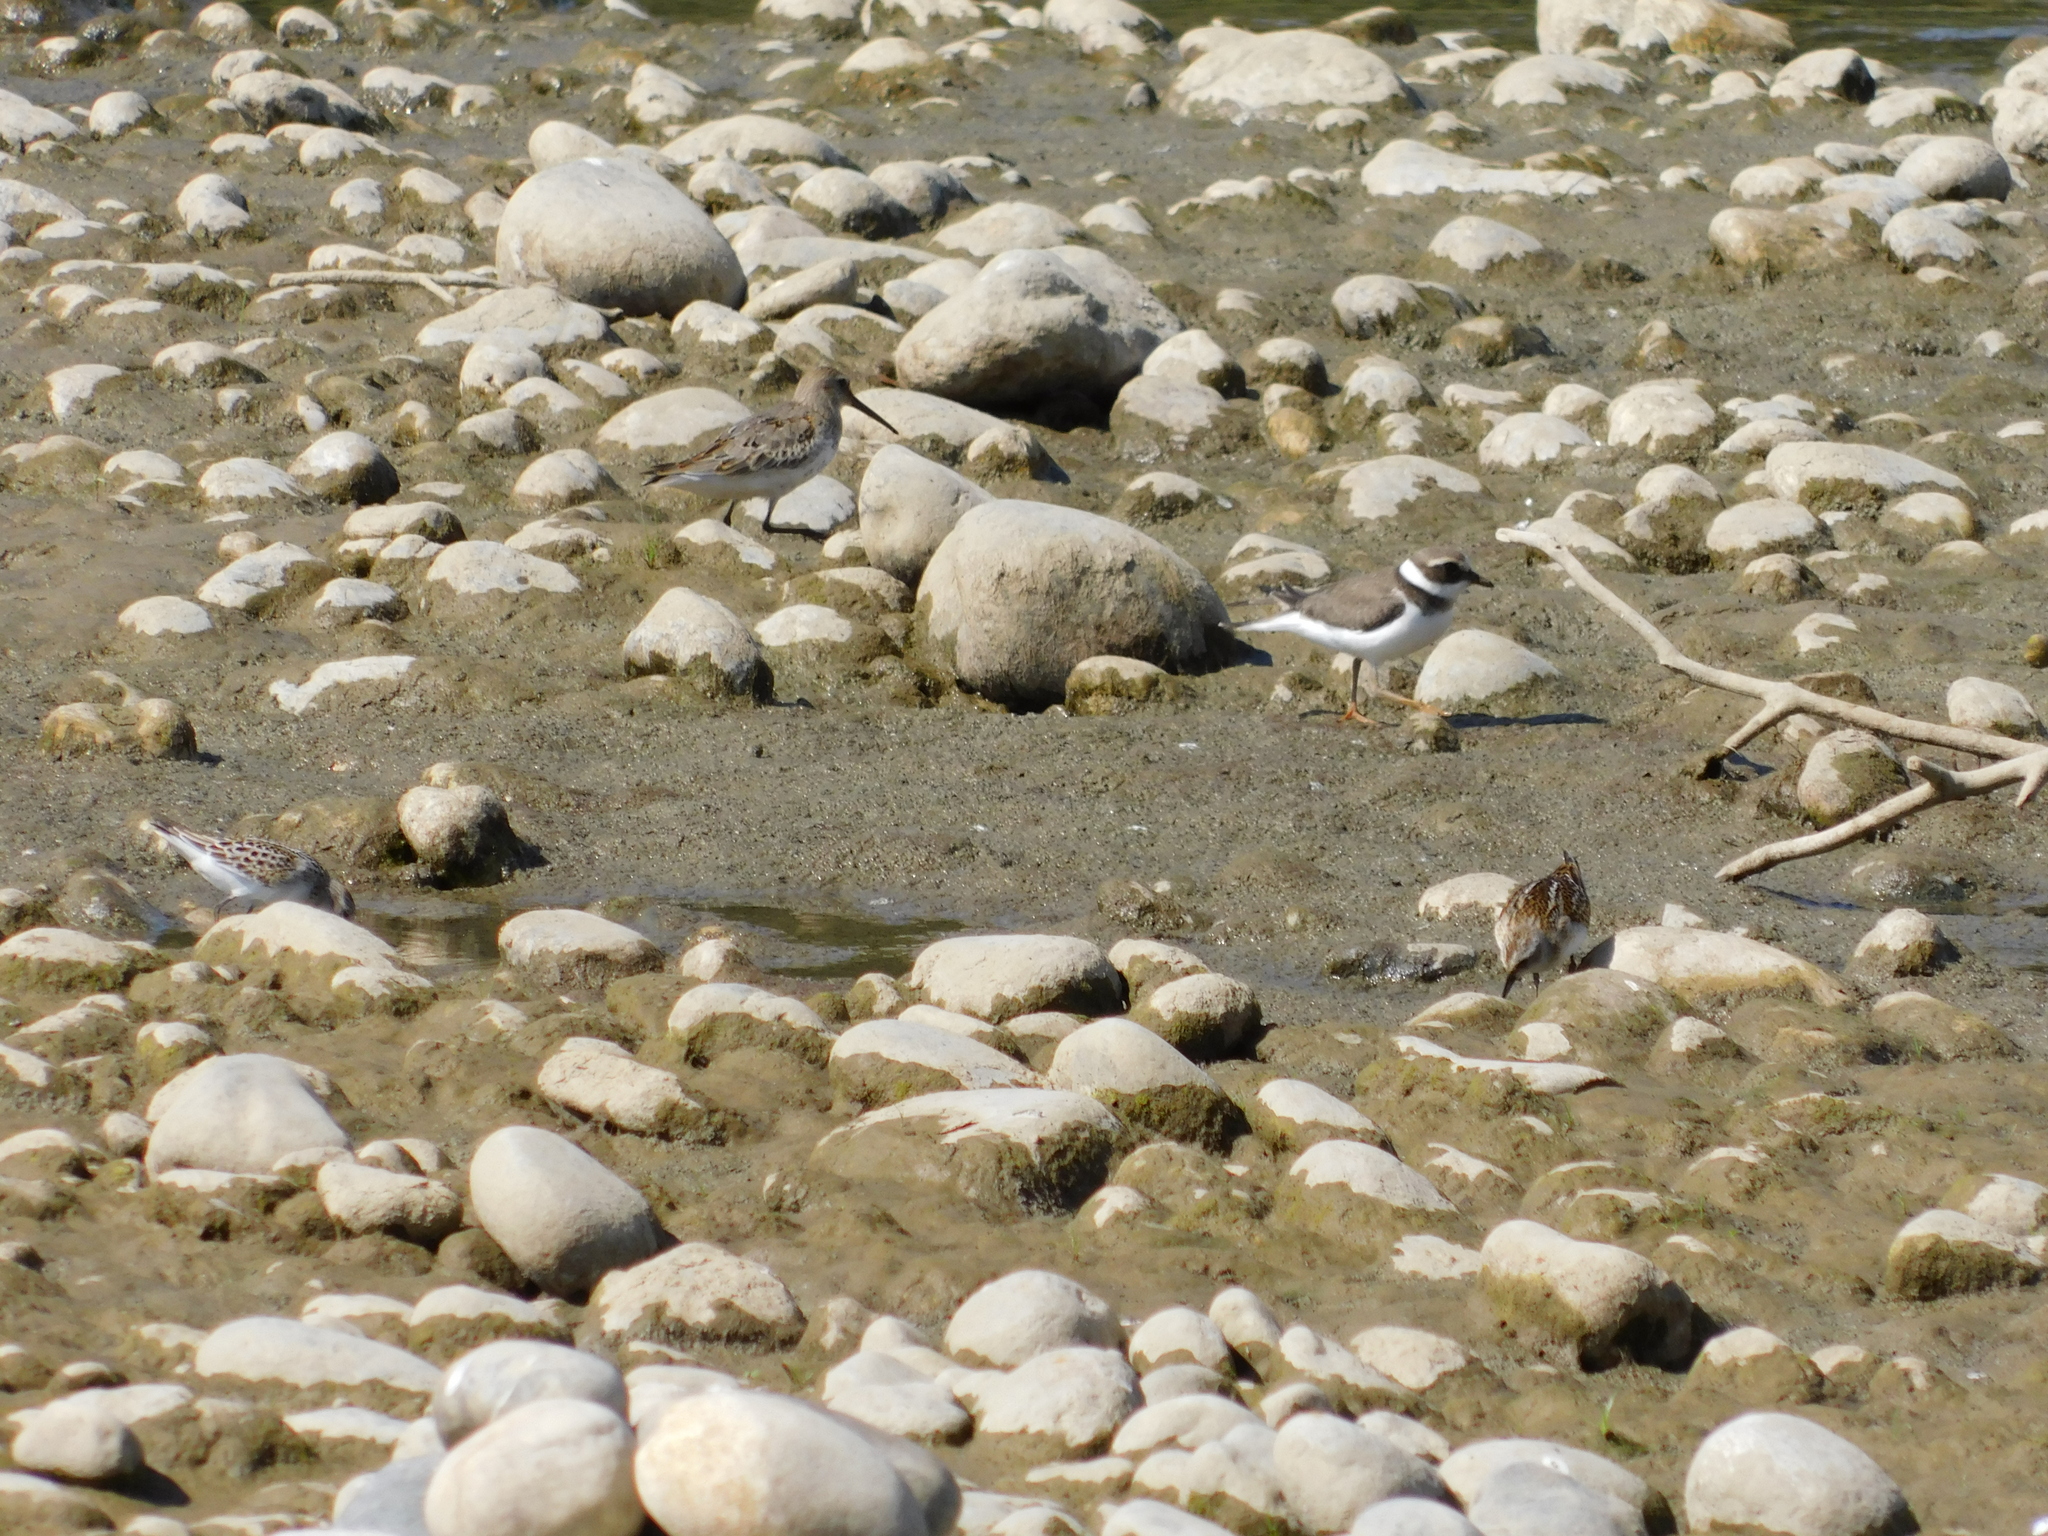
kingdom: Animalia
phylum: Chordata
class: Aves
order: Charadriiformes
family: Scolopacidae
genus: Calidris
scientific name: Calidris alpina
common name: Dunlin
